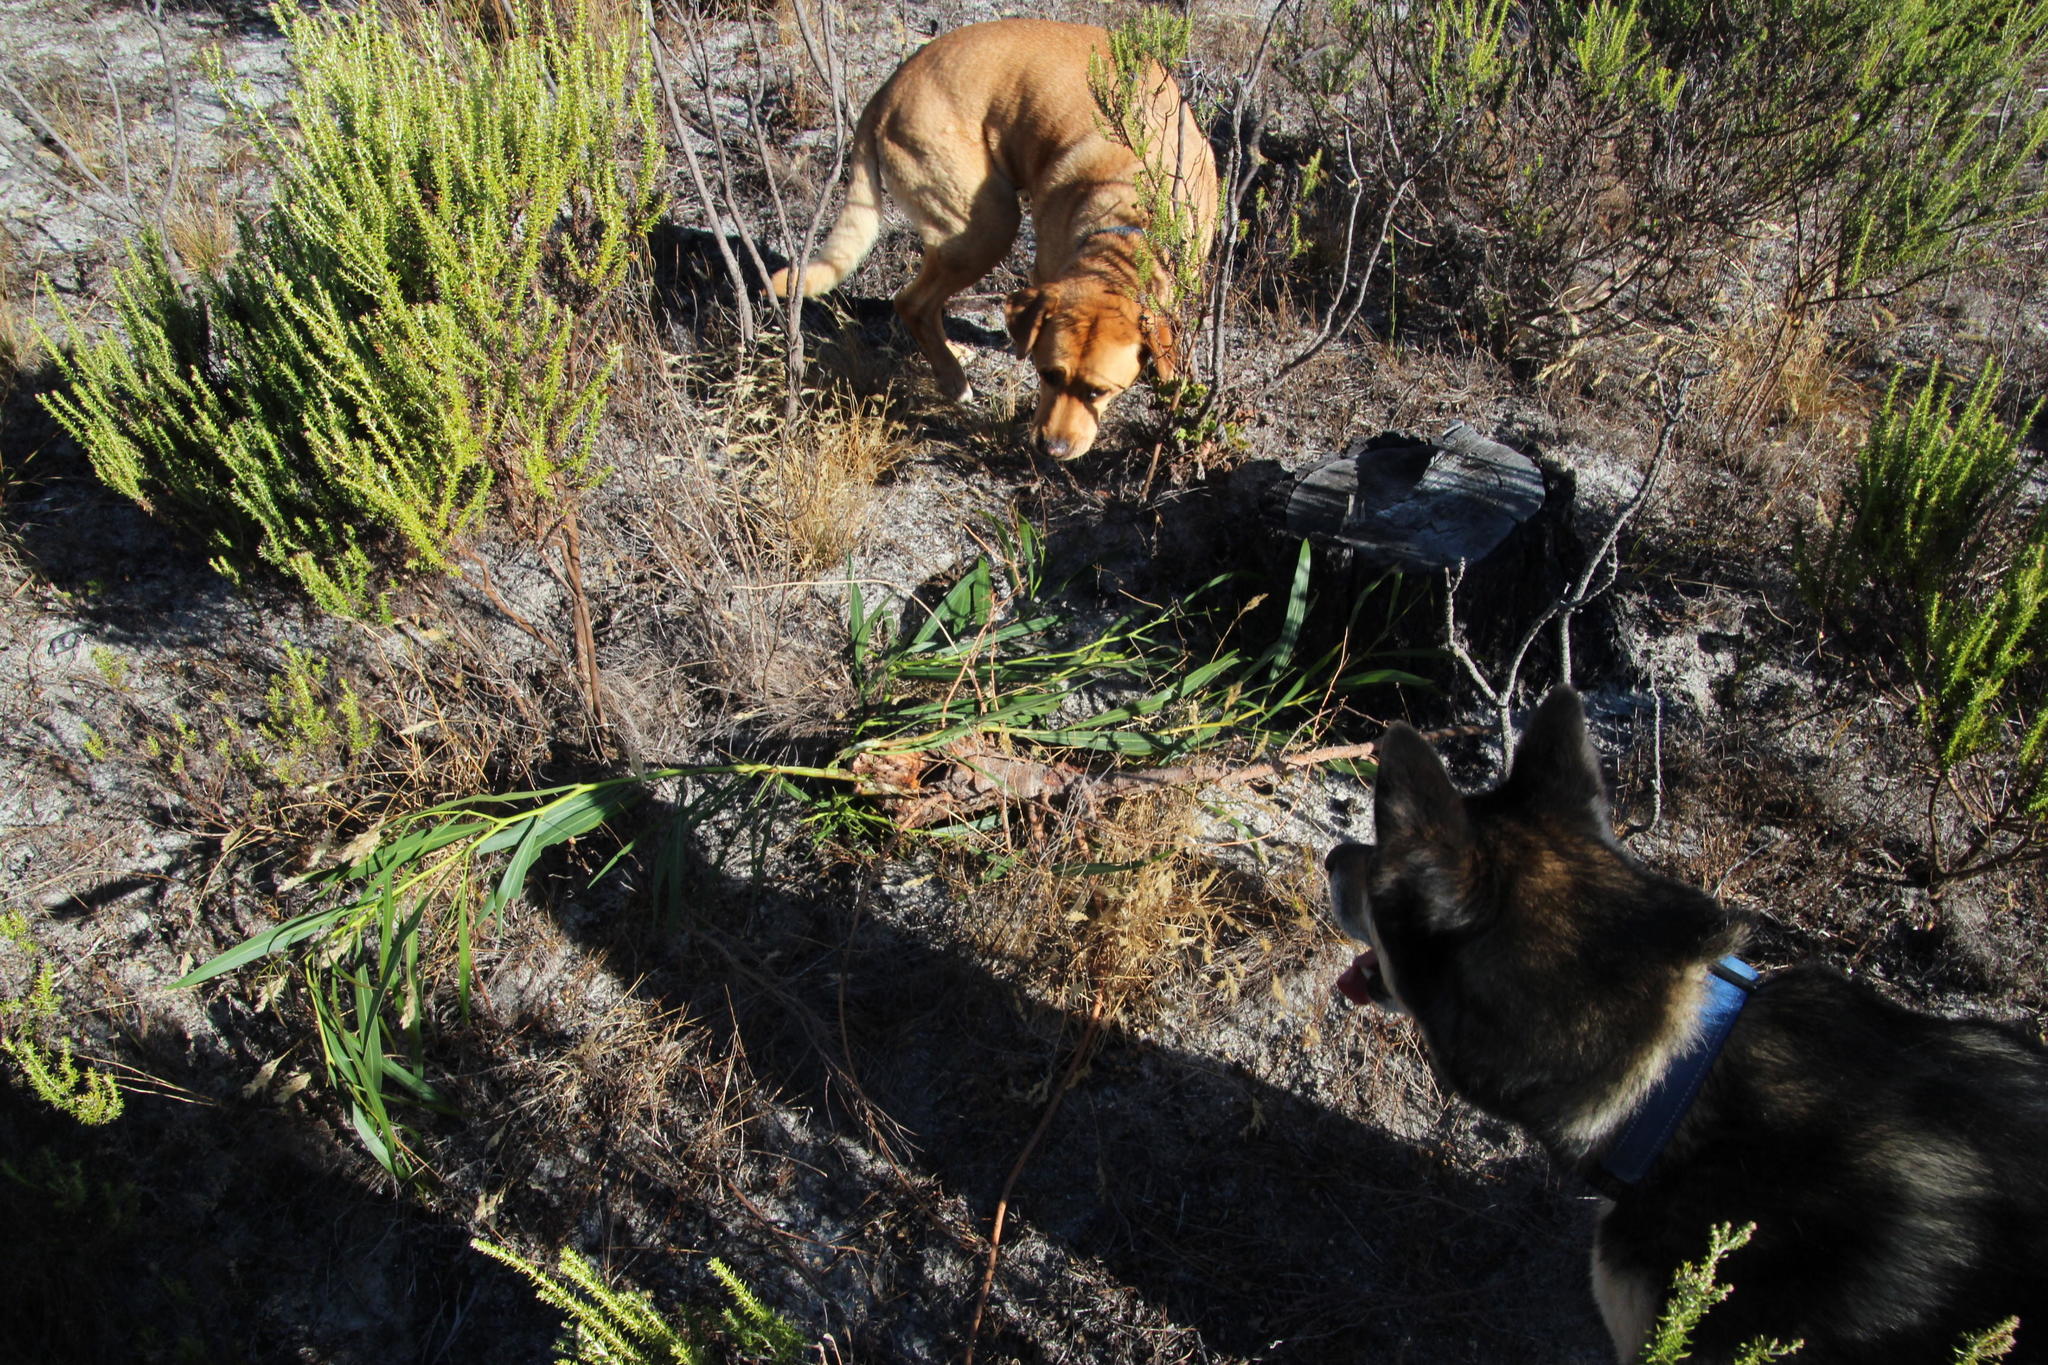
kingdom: Plantae
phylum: Tracheophyta
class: Magnoliopsida
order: Fabales
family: Fabaceae
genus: Acacia
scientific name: Acacia saligna
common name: Orange wattle
